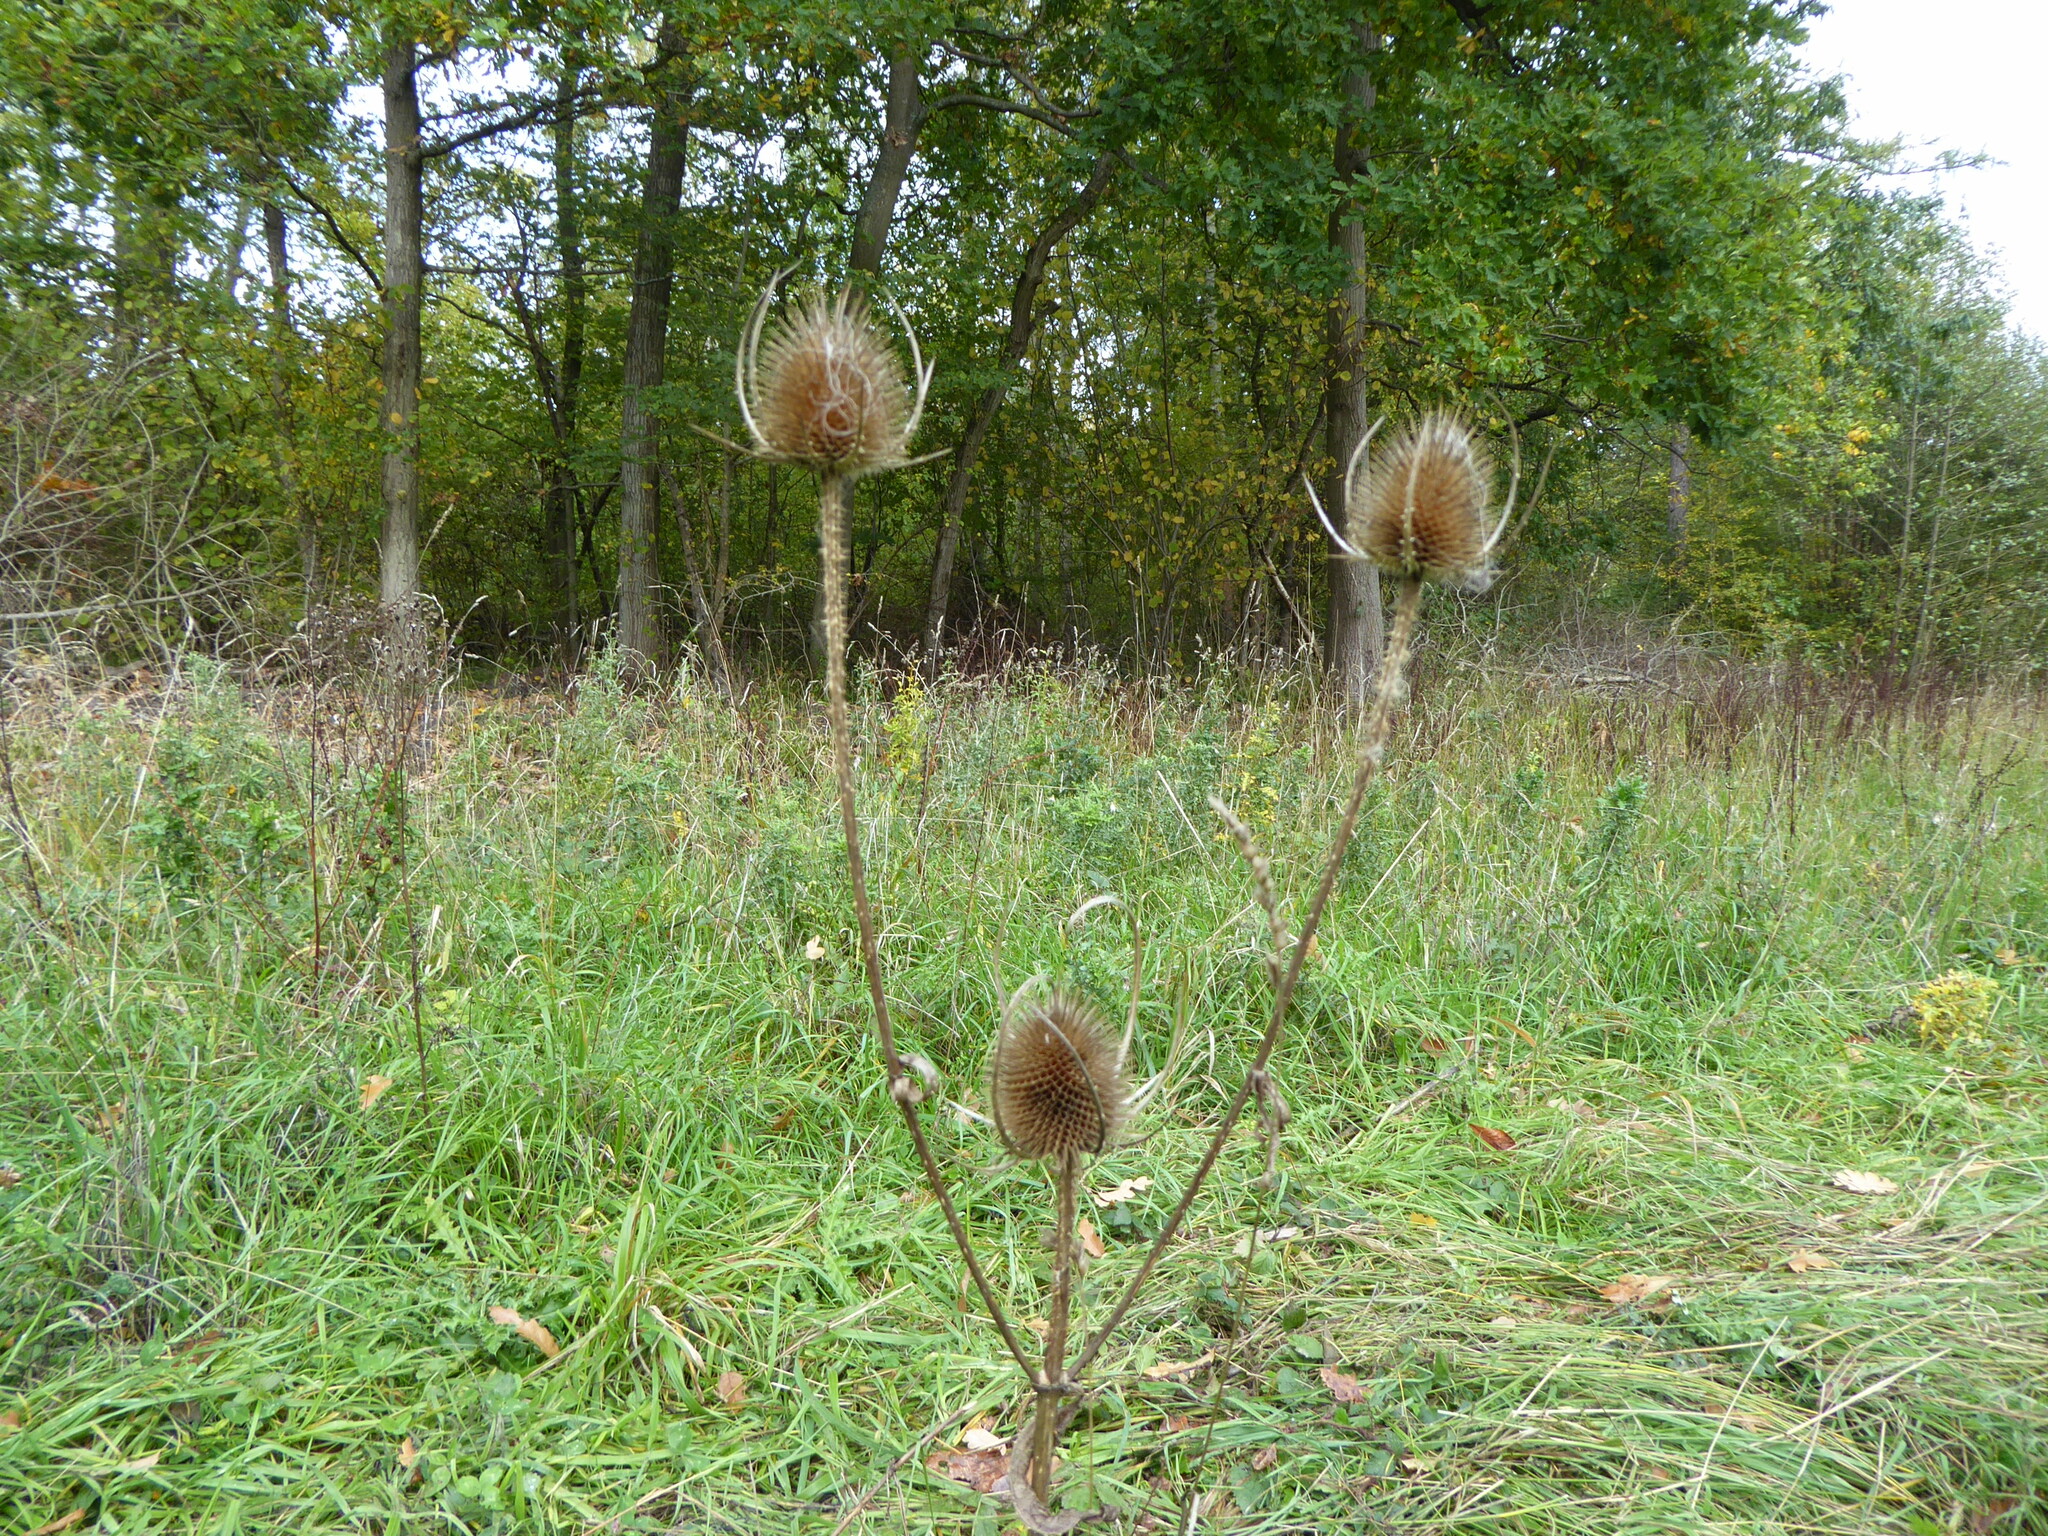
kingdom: Plantae
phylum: Tracheophyta
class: Magnoliopsida
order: Dipsacales
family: Caprifoliaceae
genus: Dipsacus
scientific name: Dipsacus fullonum
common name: Teasel
